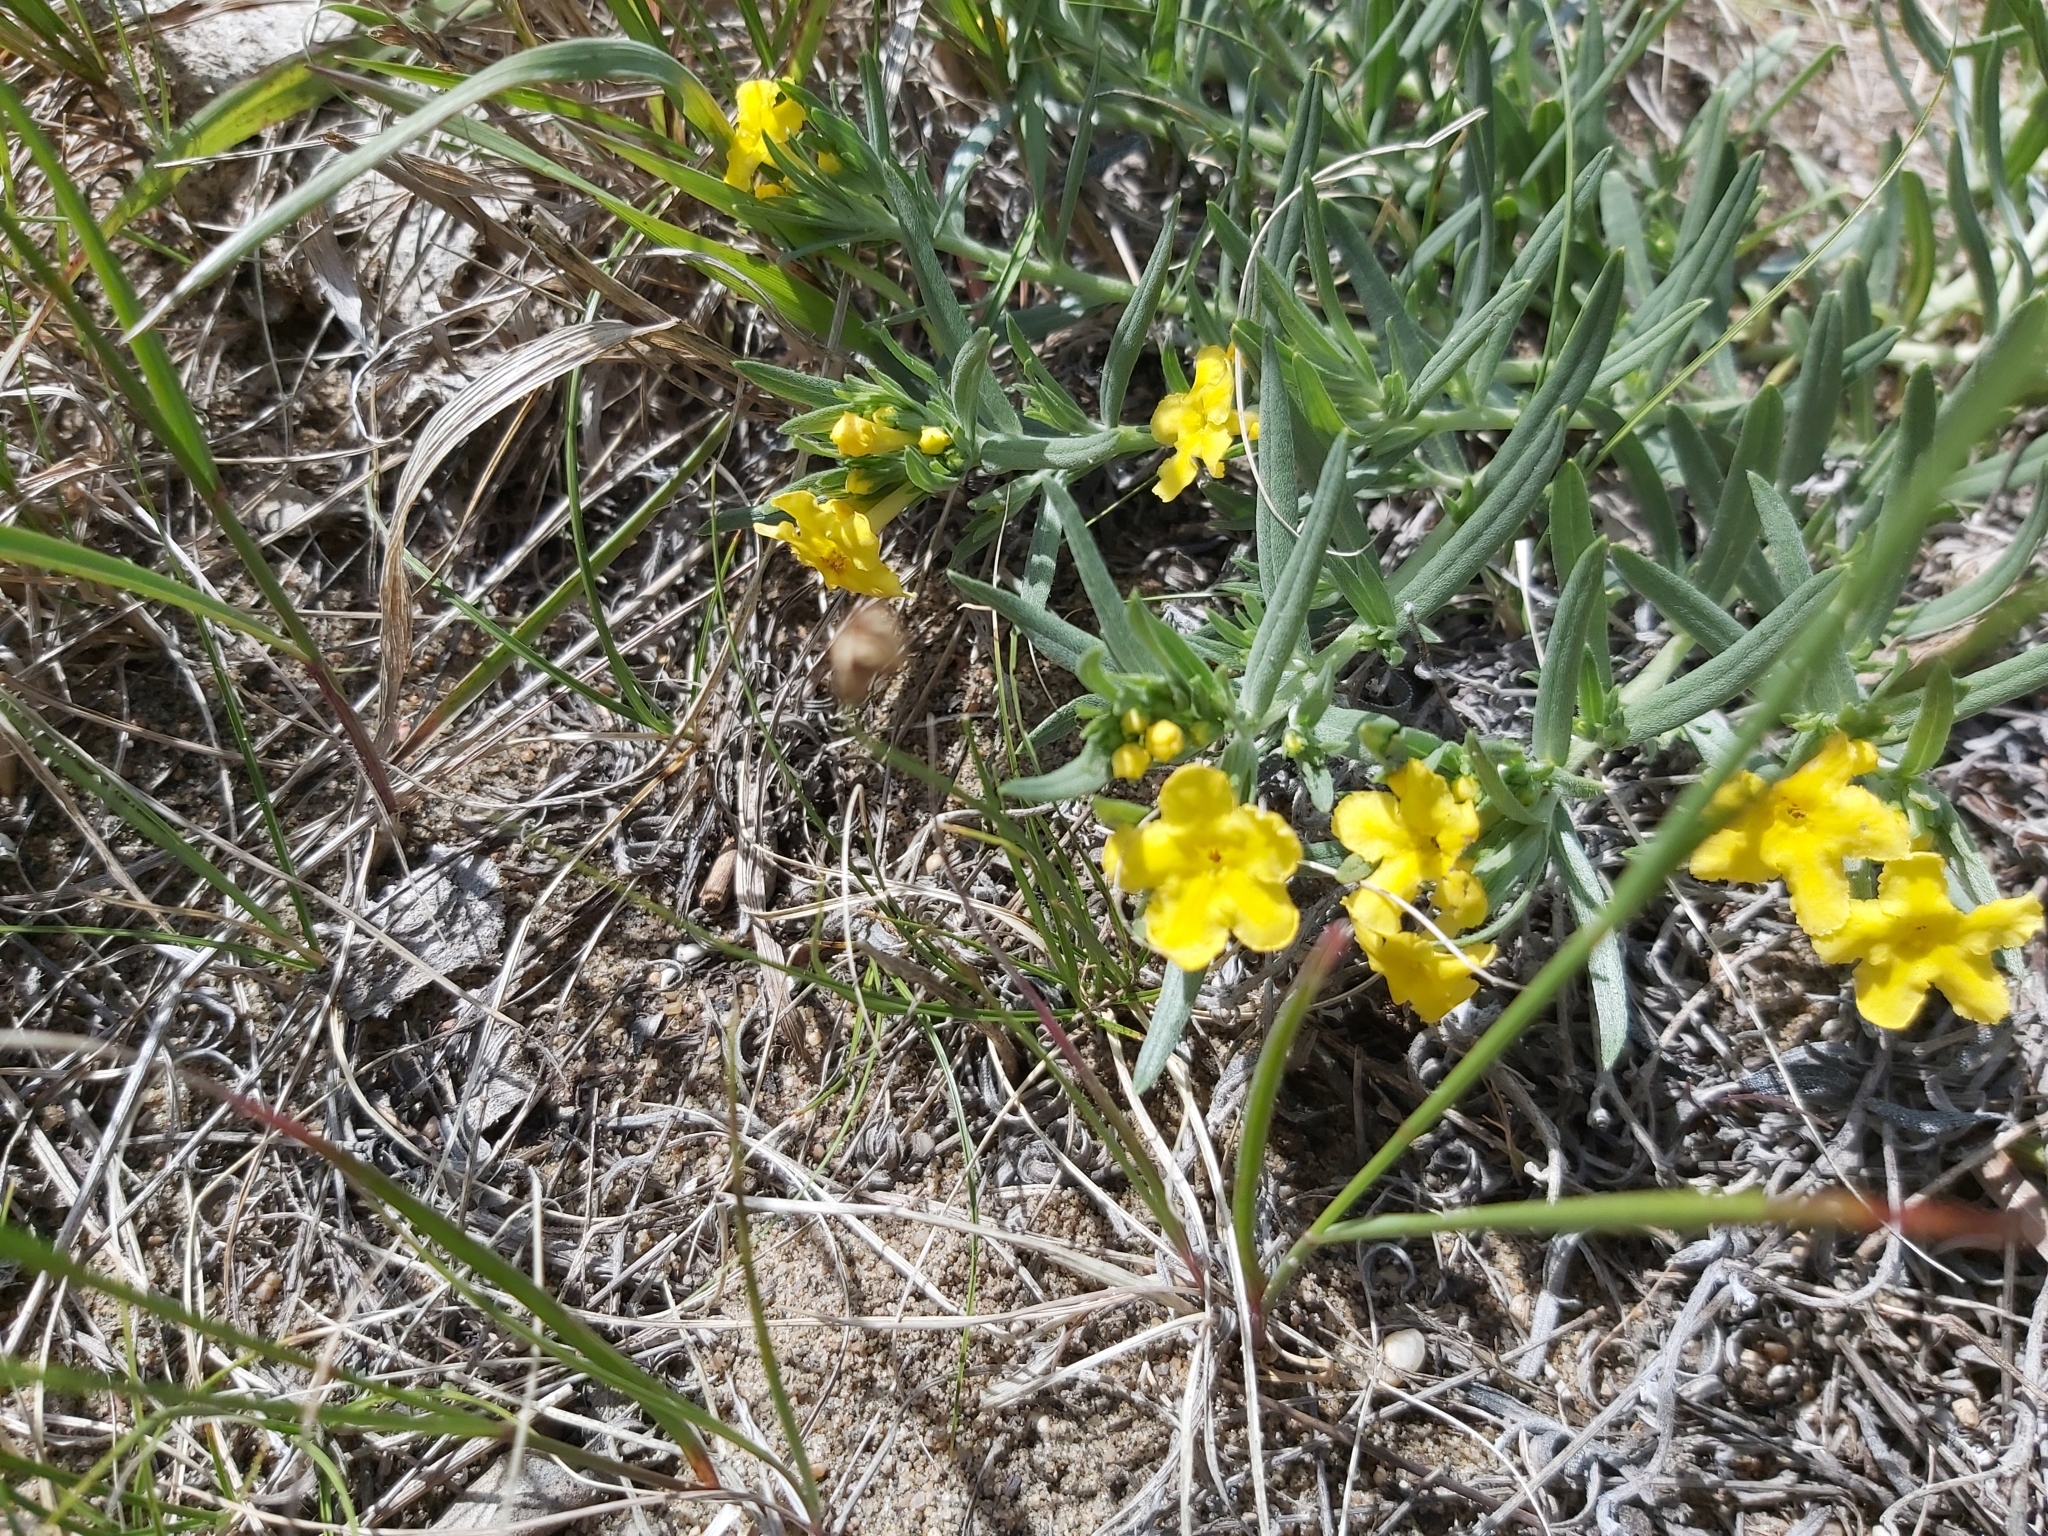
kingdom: Plantae
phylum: Tracheophyta
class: Magnoliopsida
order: Boraginales
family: Boraginaceae
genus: Lithospermum
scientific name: Lithospermum incisum
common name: Fringed gromwell
